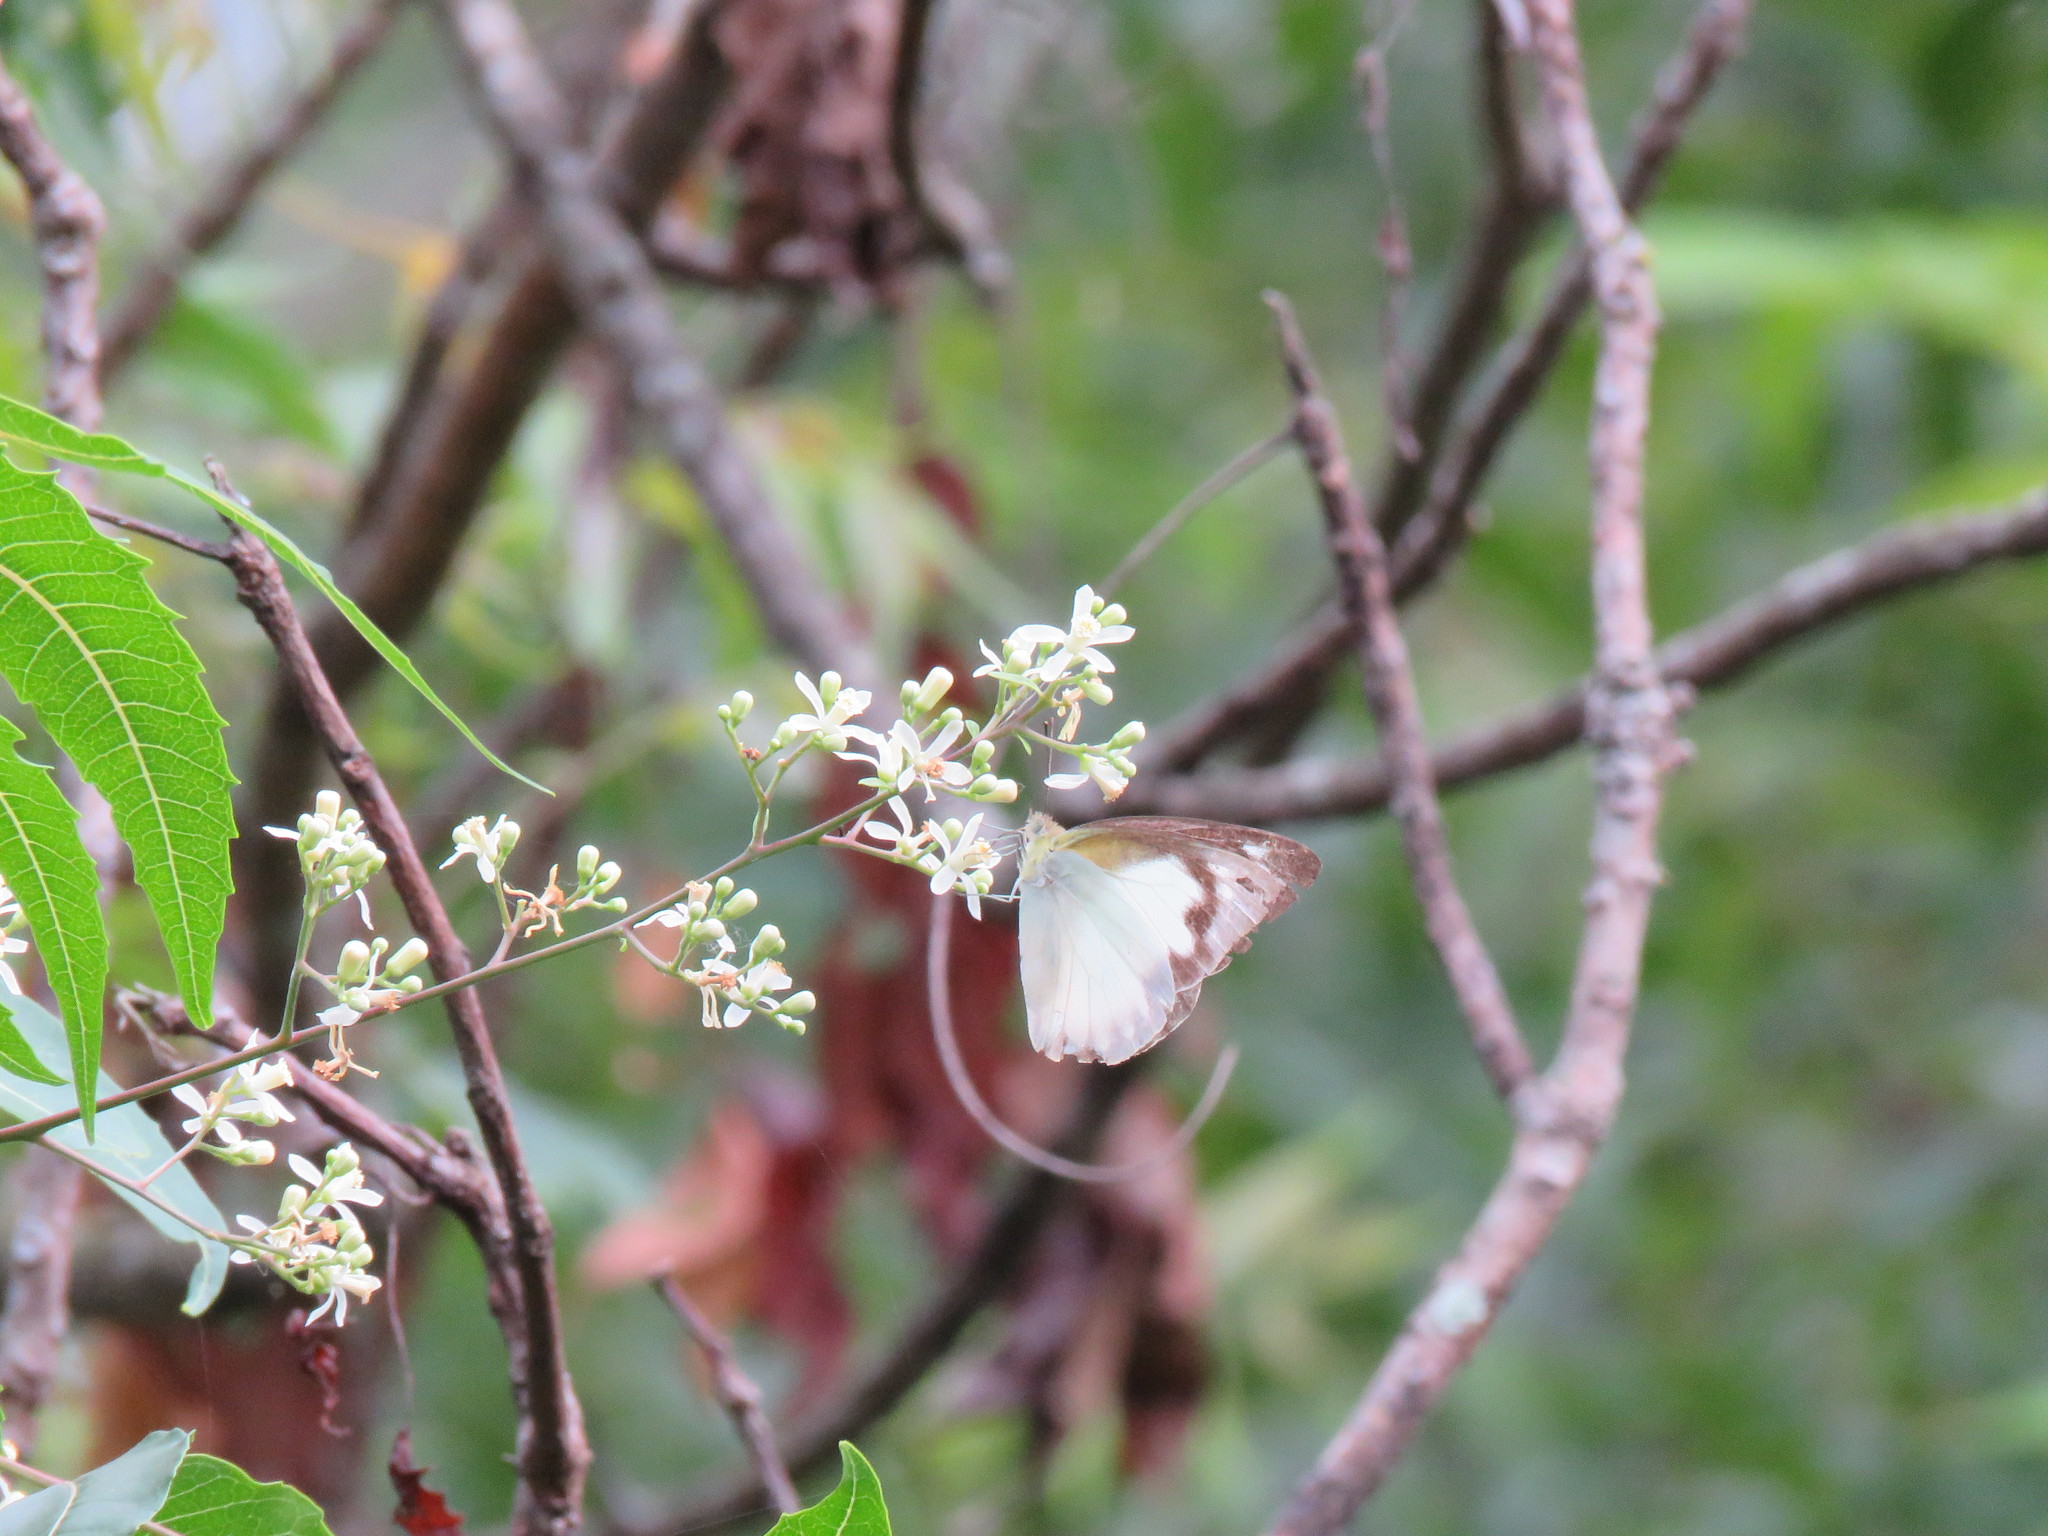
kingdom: Animalia
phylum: Arthropoda
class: Insecta
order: Lepidoptera
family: Pieridae
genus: Appias
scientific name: Appias albina
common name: Common albatross
